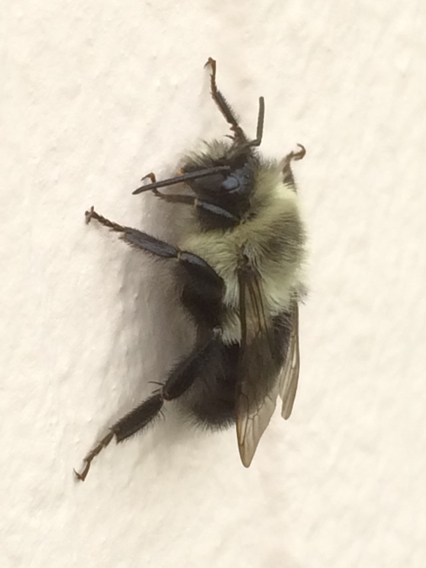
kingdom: Animalia
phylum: Arthropoda
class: Insecta
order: Hymenoptera
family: Apidae
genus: Bombus
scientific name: Bombus impatiens
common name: Common eastern bumble bee
